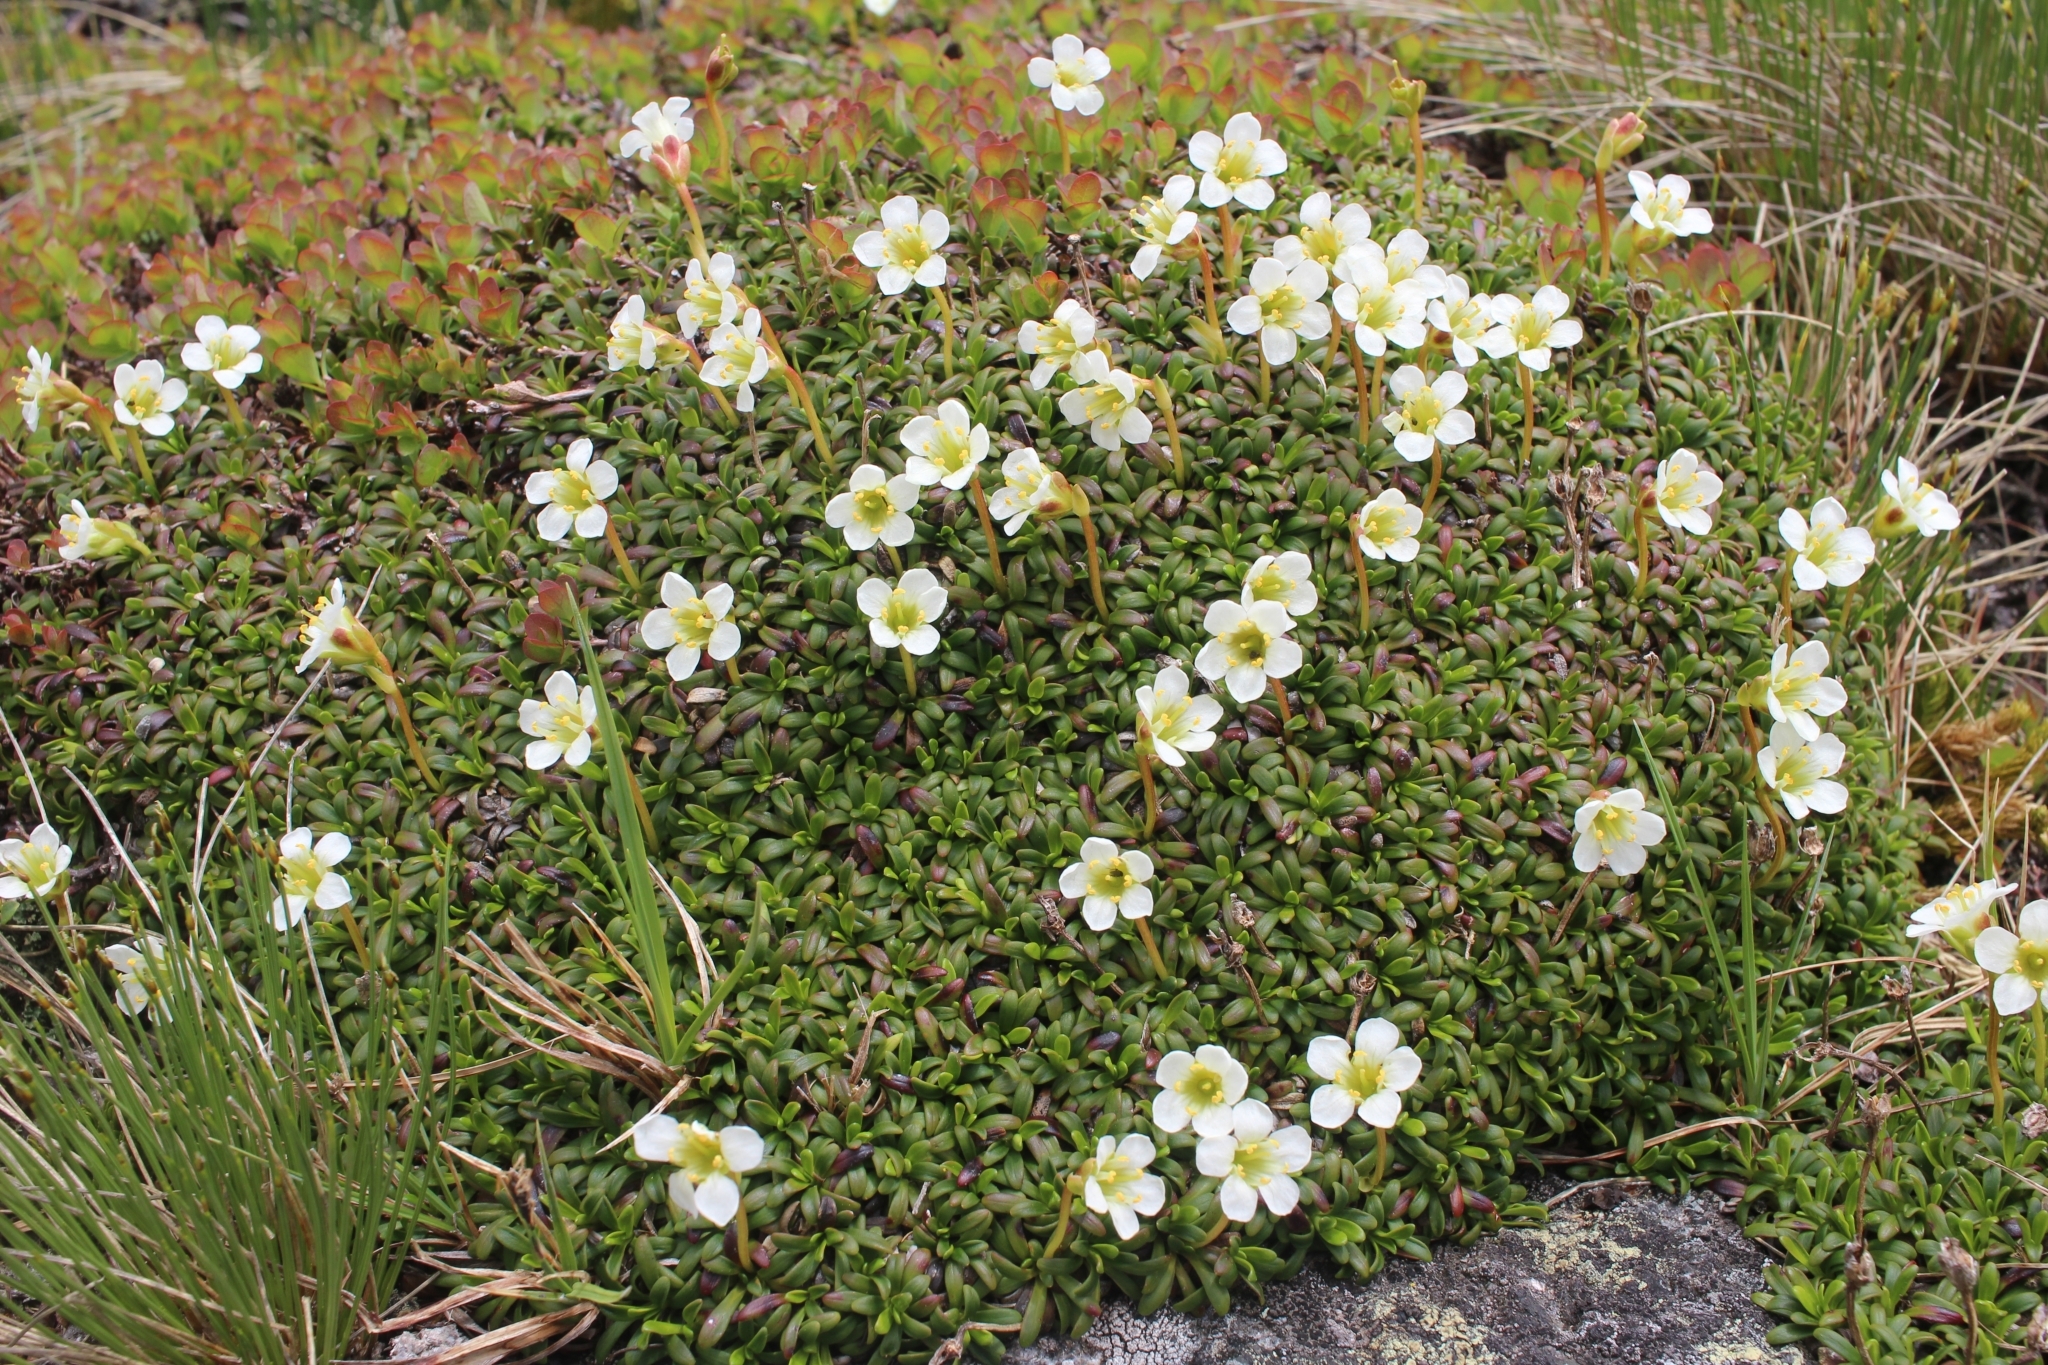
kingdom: Plantae
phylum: Tracheophyta
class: Magnoliopsida
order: Ericales
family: Diapensiaceae
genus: Diapensia
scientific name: Diapensia lapponica
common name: Diapensia
